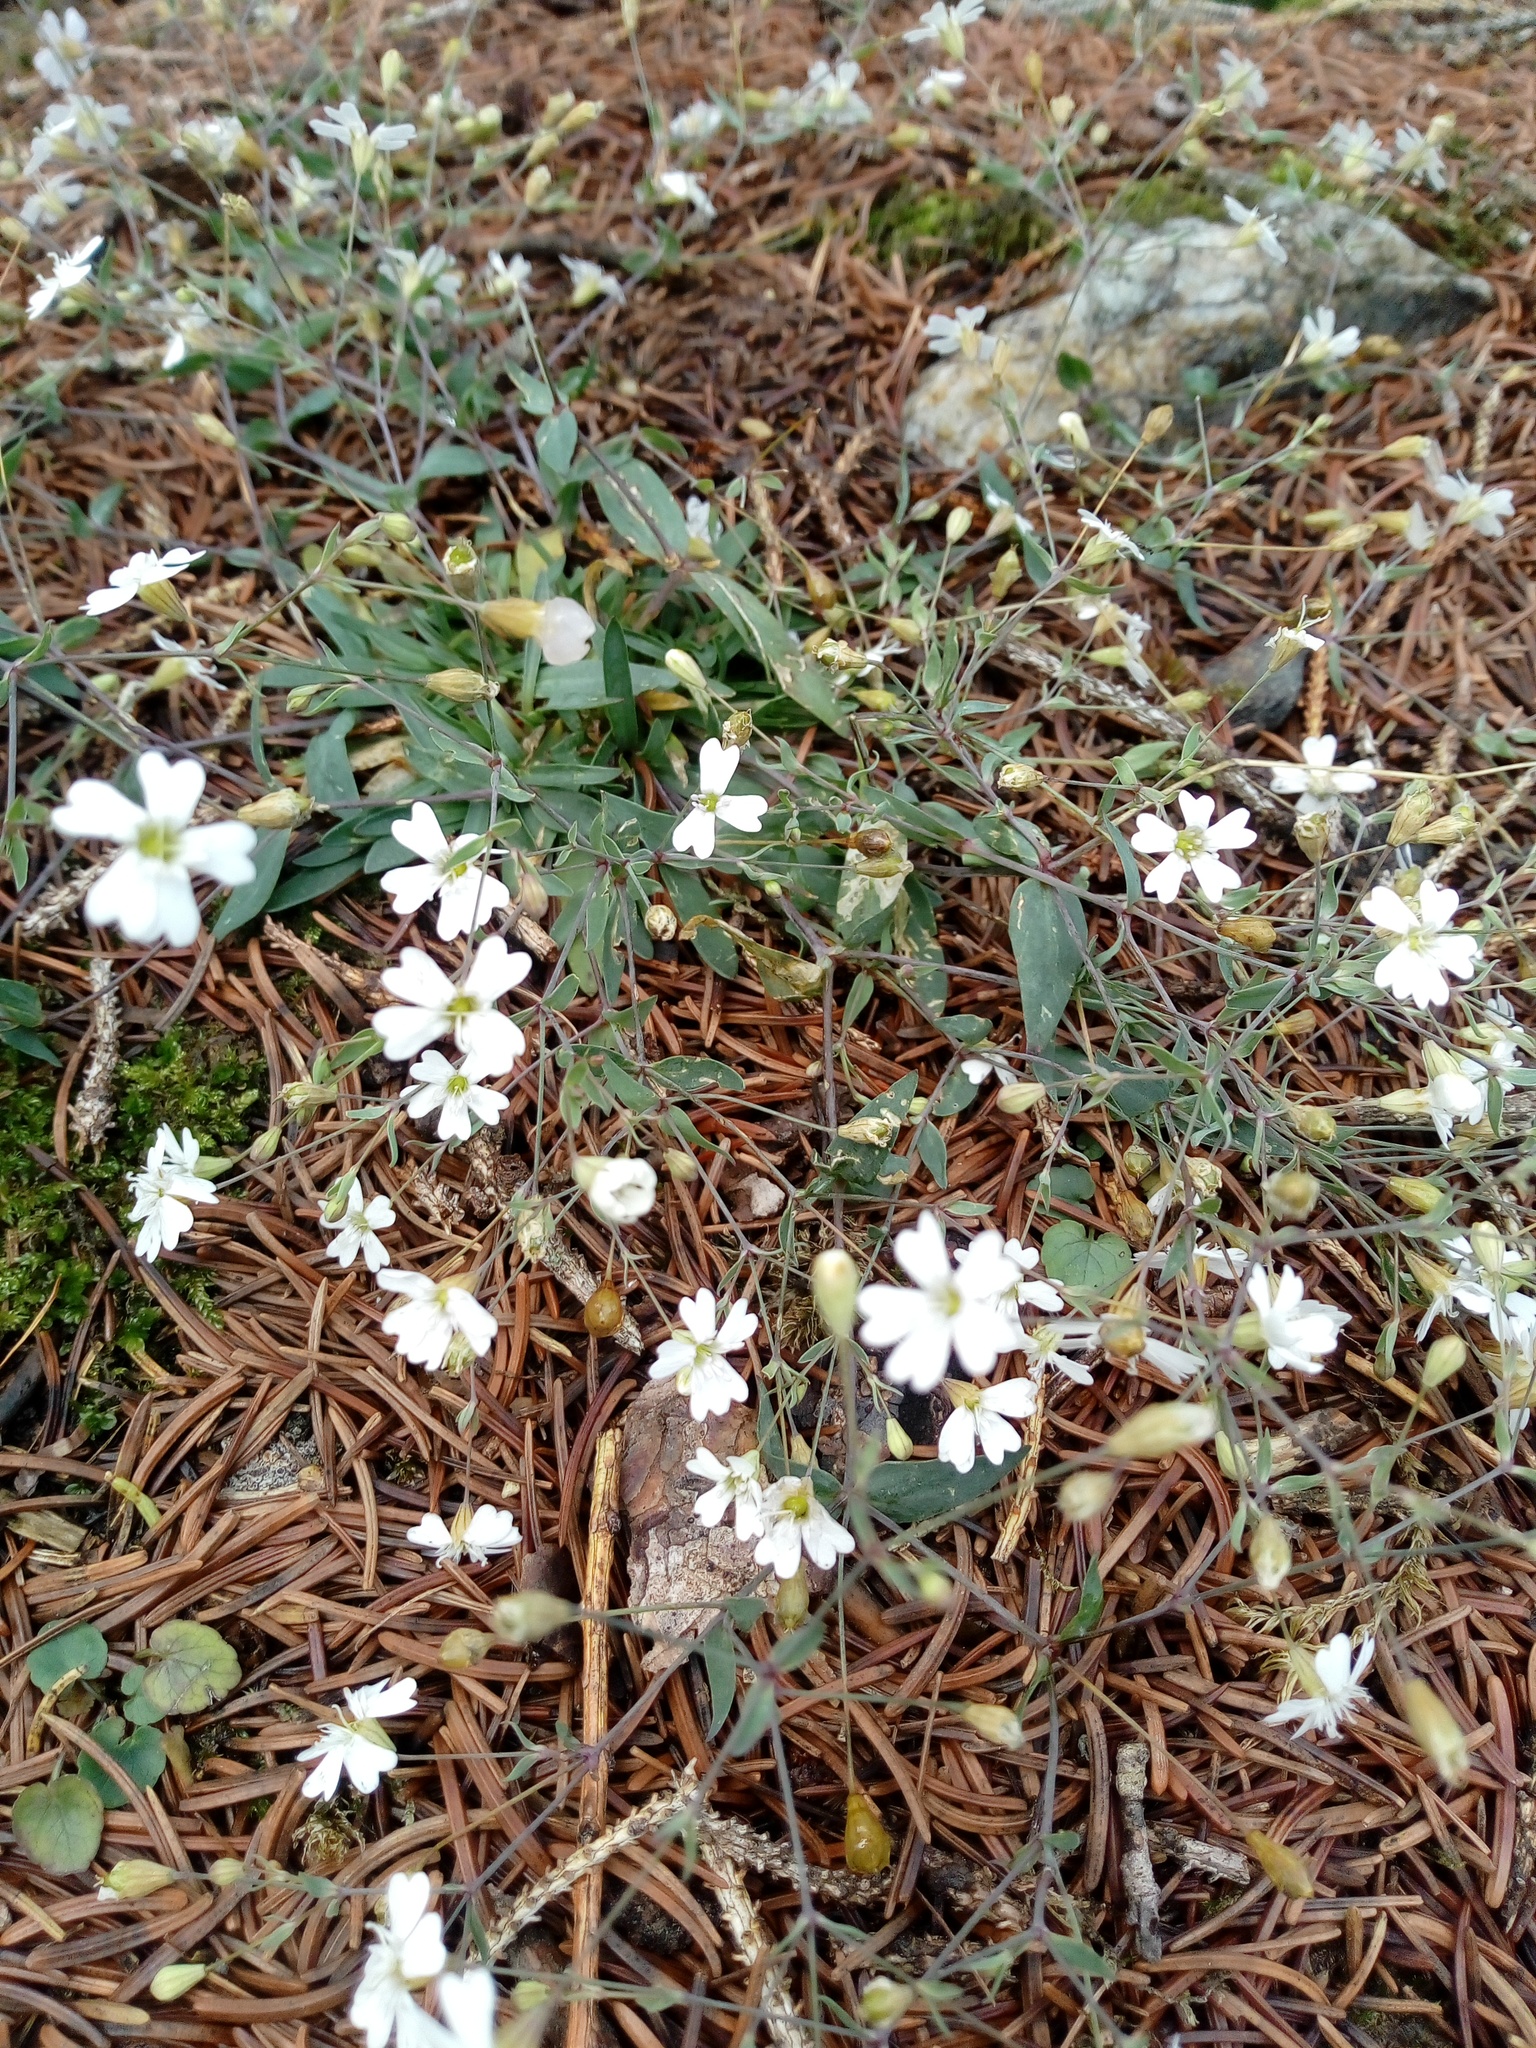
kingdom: Plantae
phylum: Tracheophyta
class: Magnoliopsida
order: Caryophyllales
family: Caryophyllaceae
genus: Atocion
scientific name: Atocion rupestre
